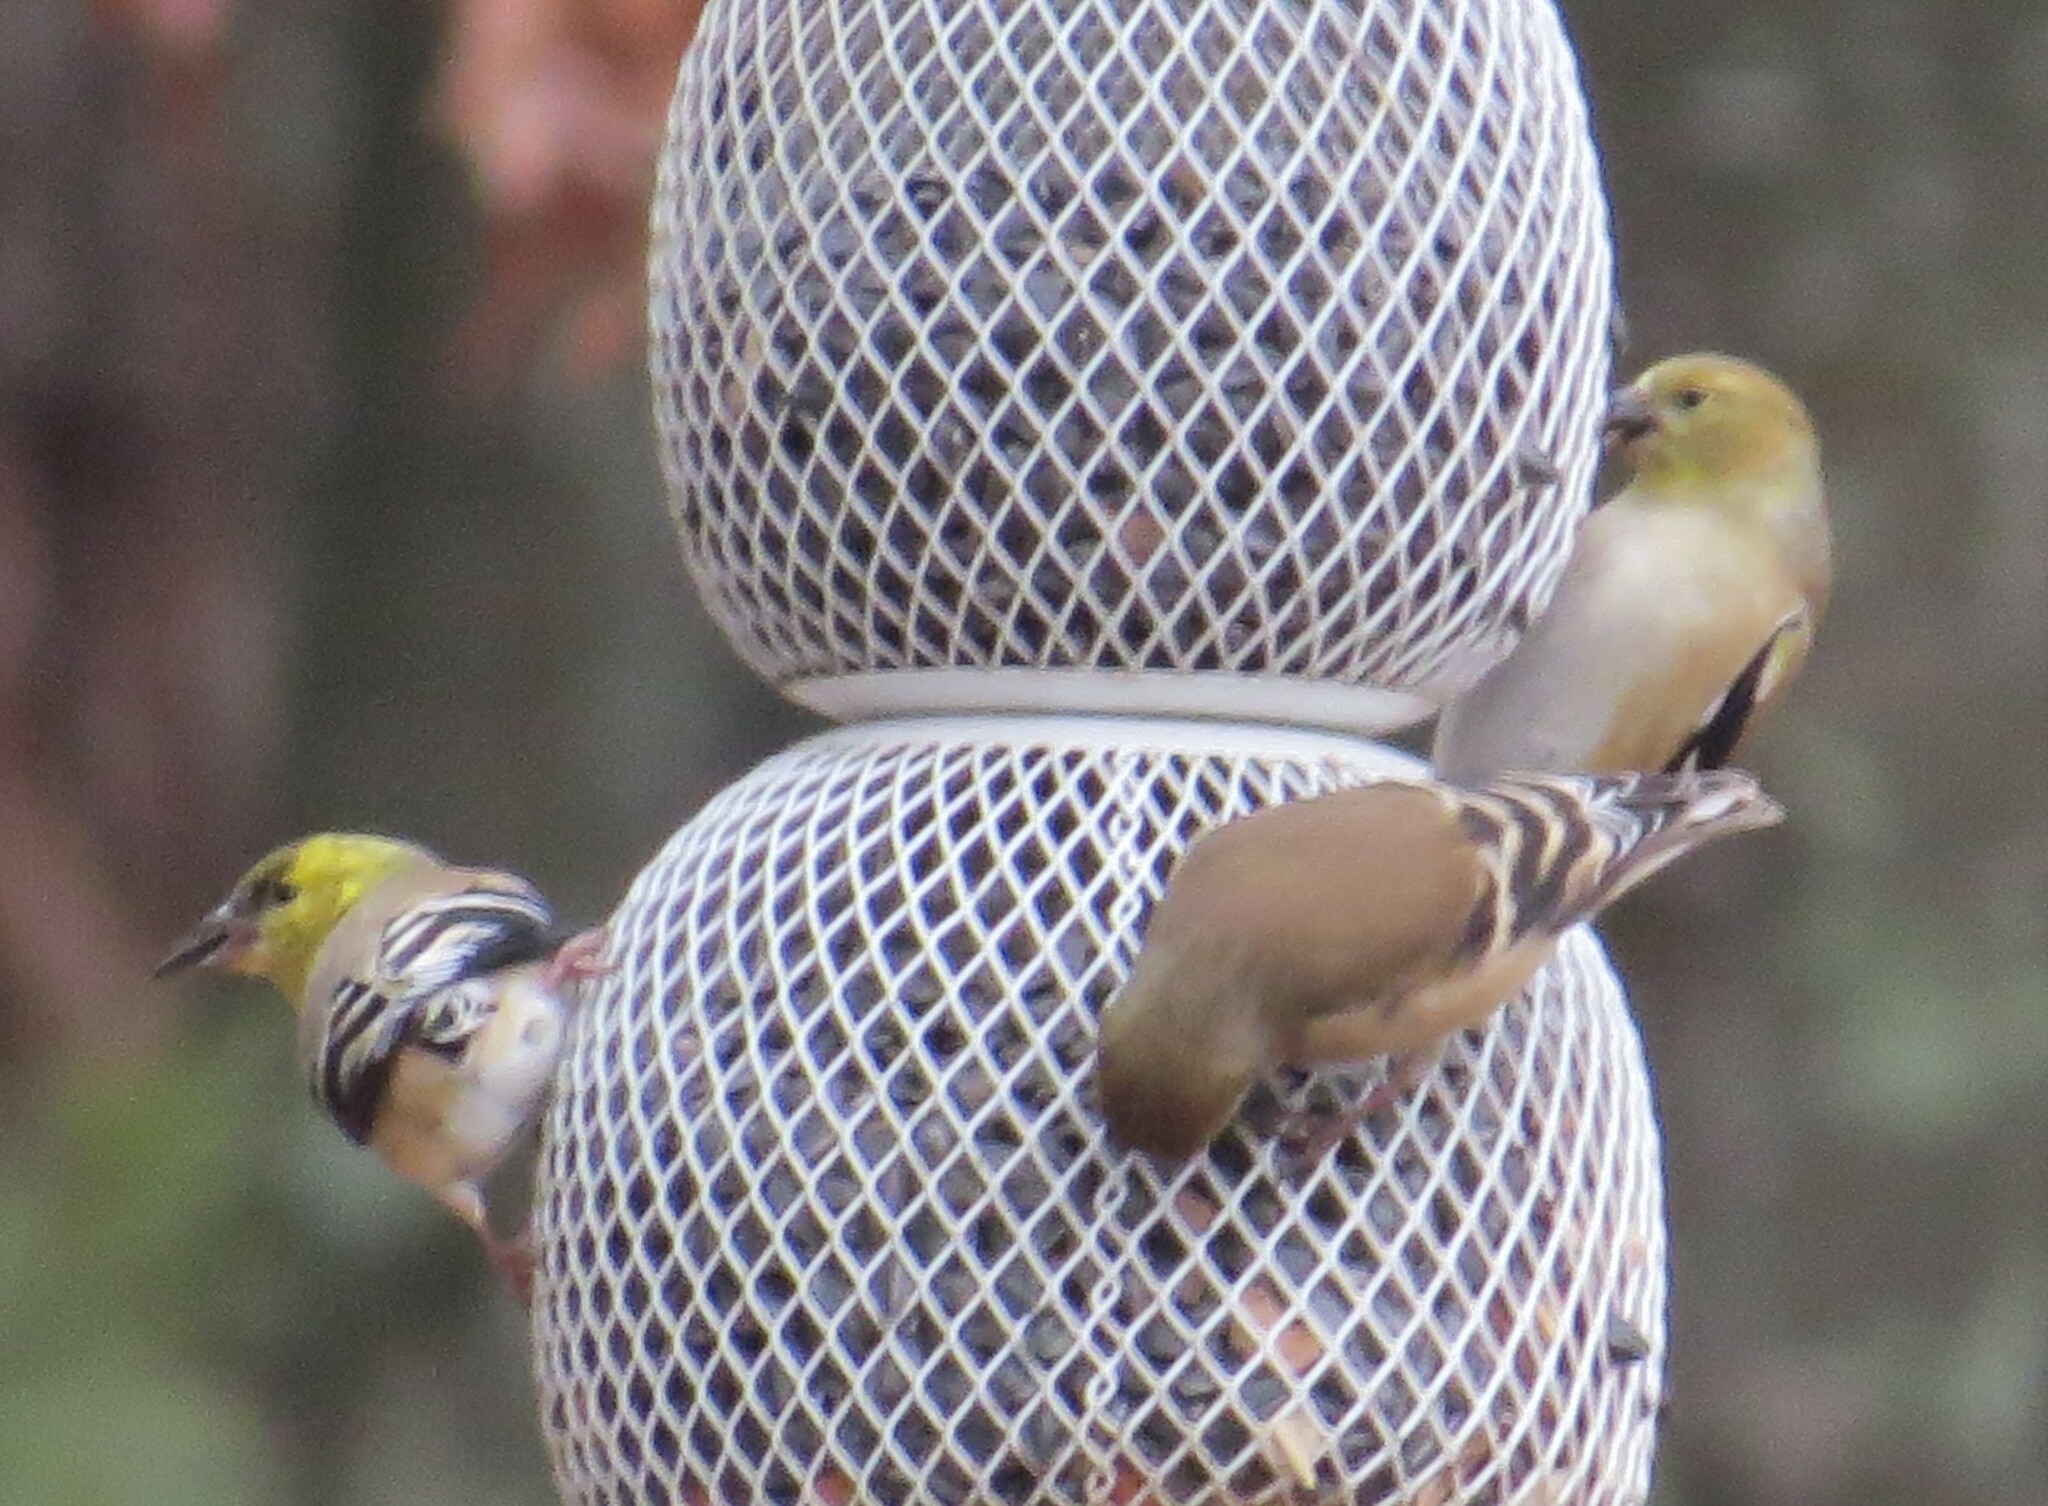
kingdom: Animalia
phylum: Chordata
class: Aves
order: Passeriformes
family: Fringillidae
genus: Spinus
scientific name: Spinus tristis
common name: American goldfinch
